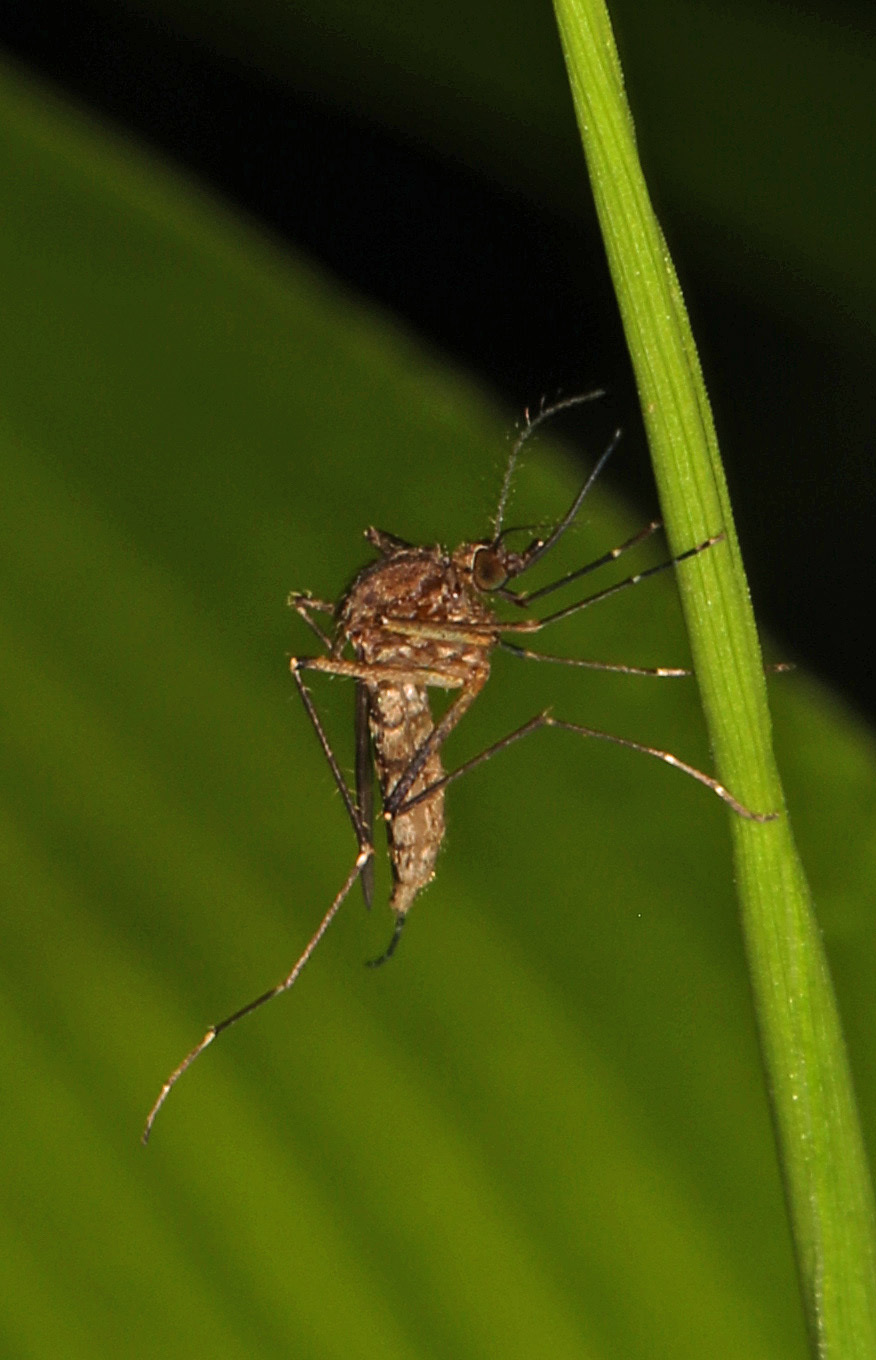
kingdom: Animalia
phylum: Arthropoda
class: Insecta
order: Diptera
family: Culicidae
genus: Aedes
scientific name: Aedes vexans
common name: Inland floodwater mosquito
